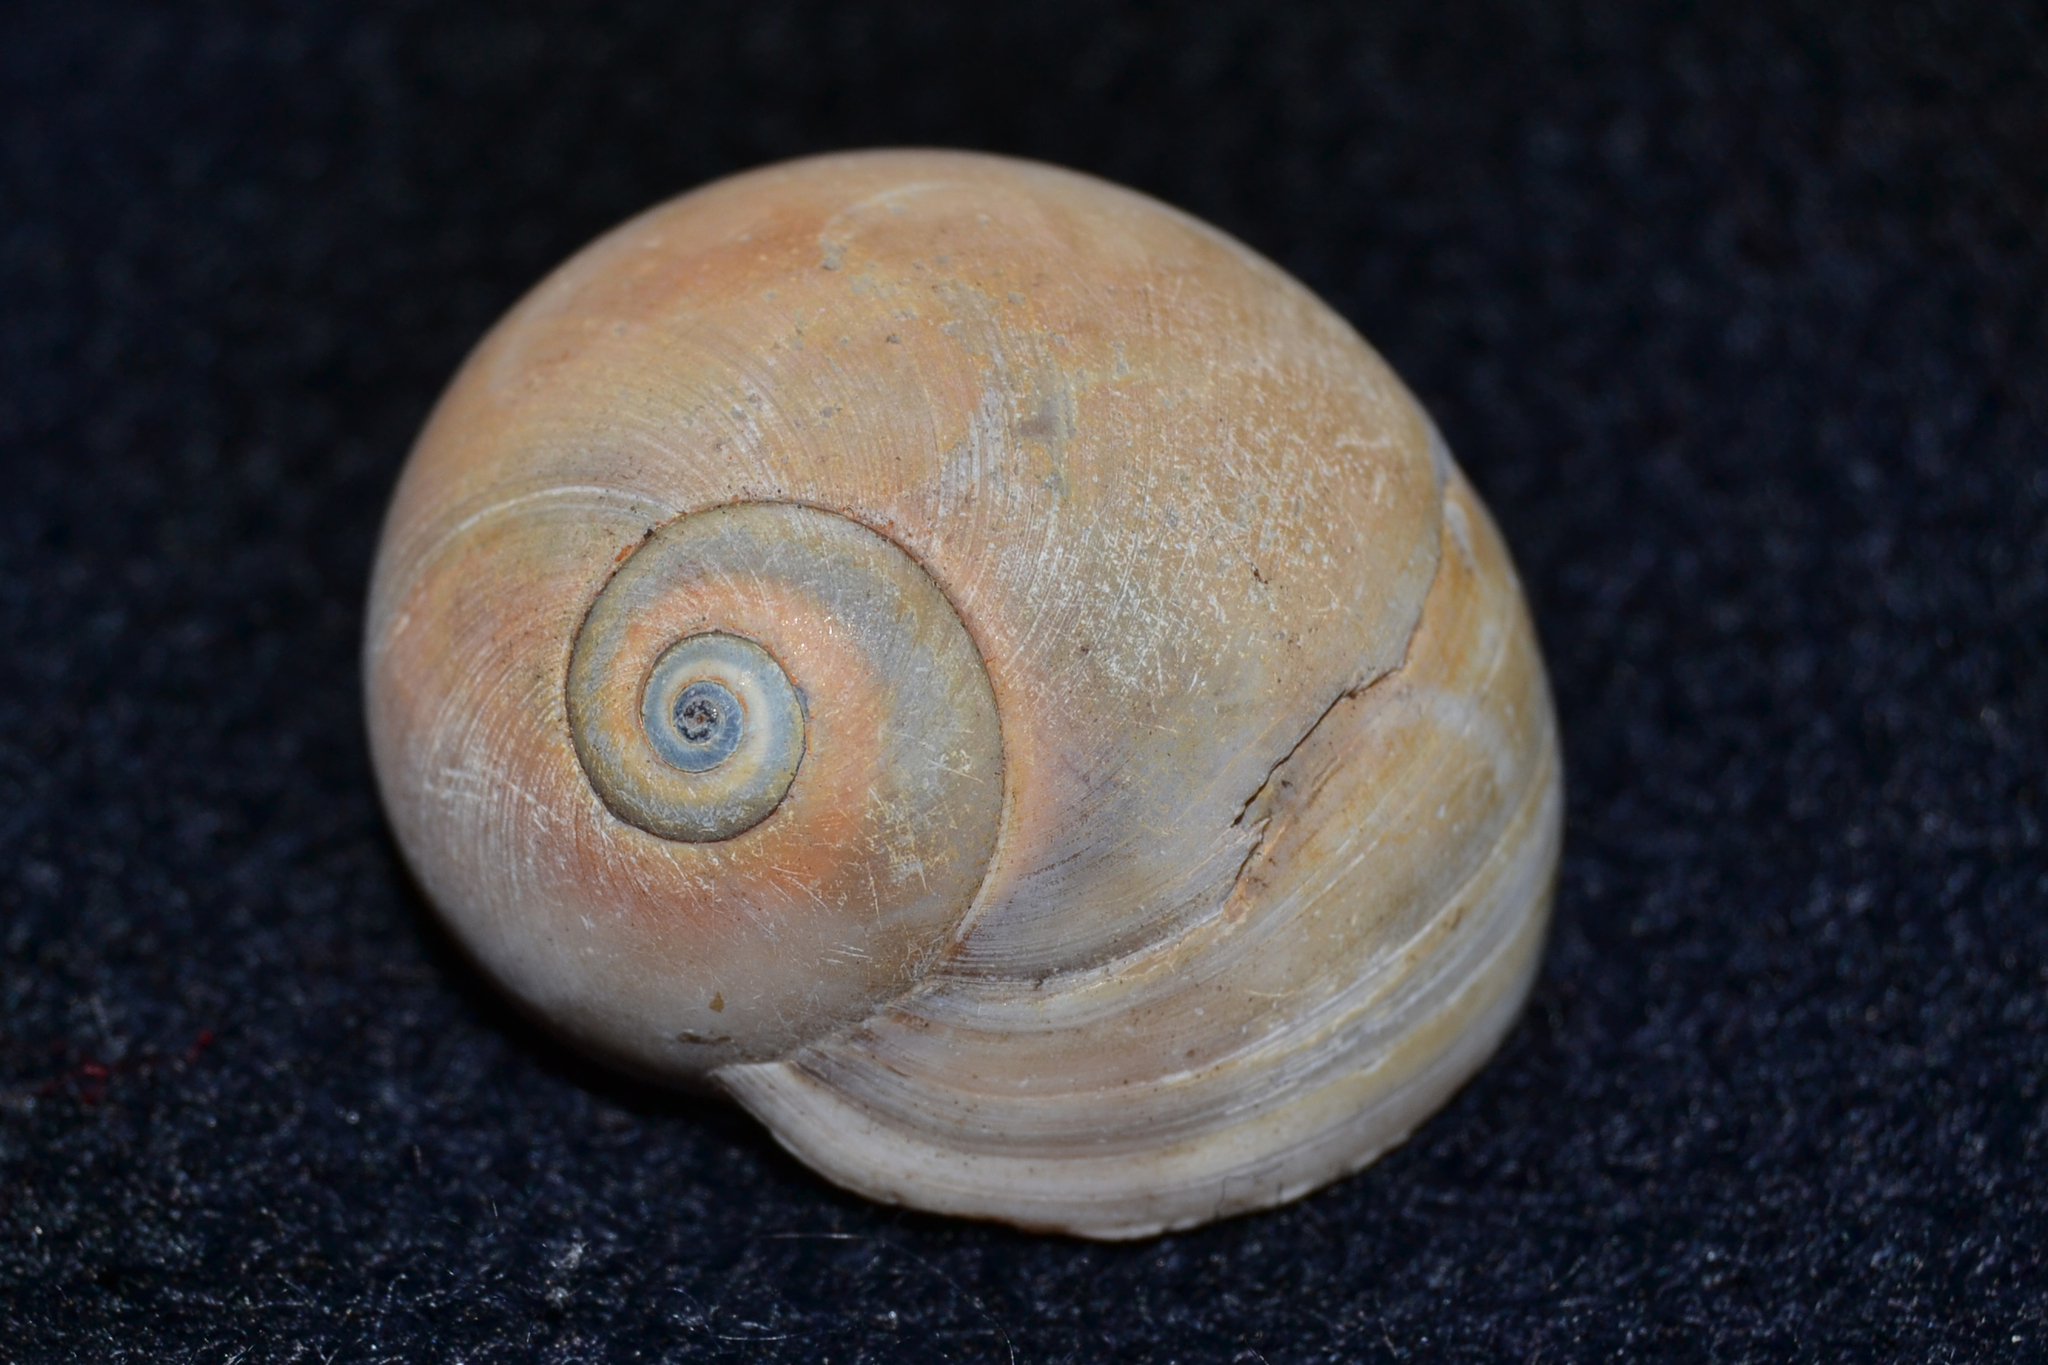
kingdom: Animalia
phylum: Mollusca
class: Gastropoda
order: Littorinimorpha
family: Naticidae
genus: Neverita
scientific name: Neverita duplicata
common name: Lobed moonsnail
